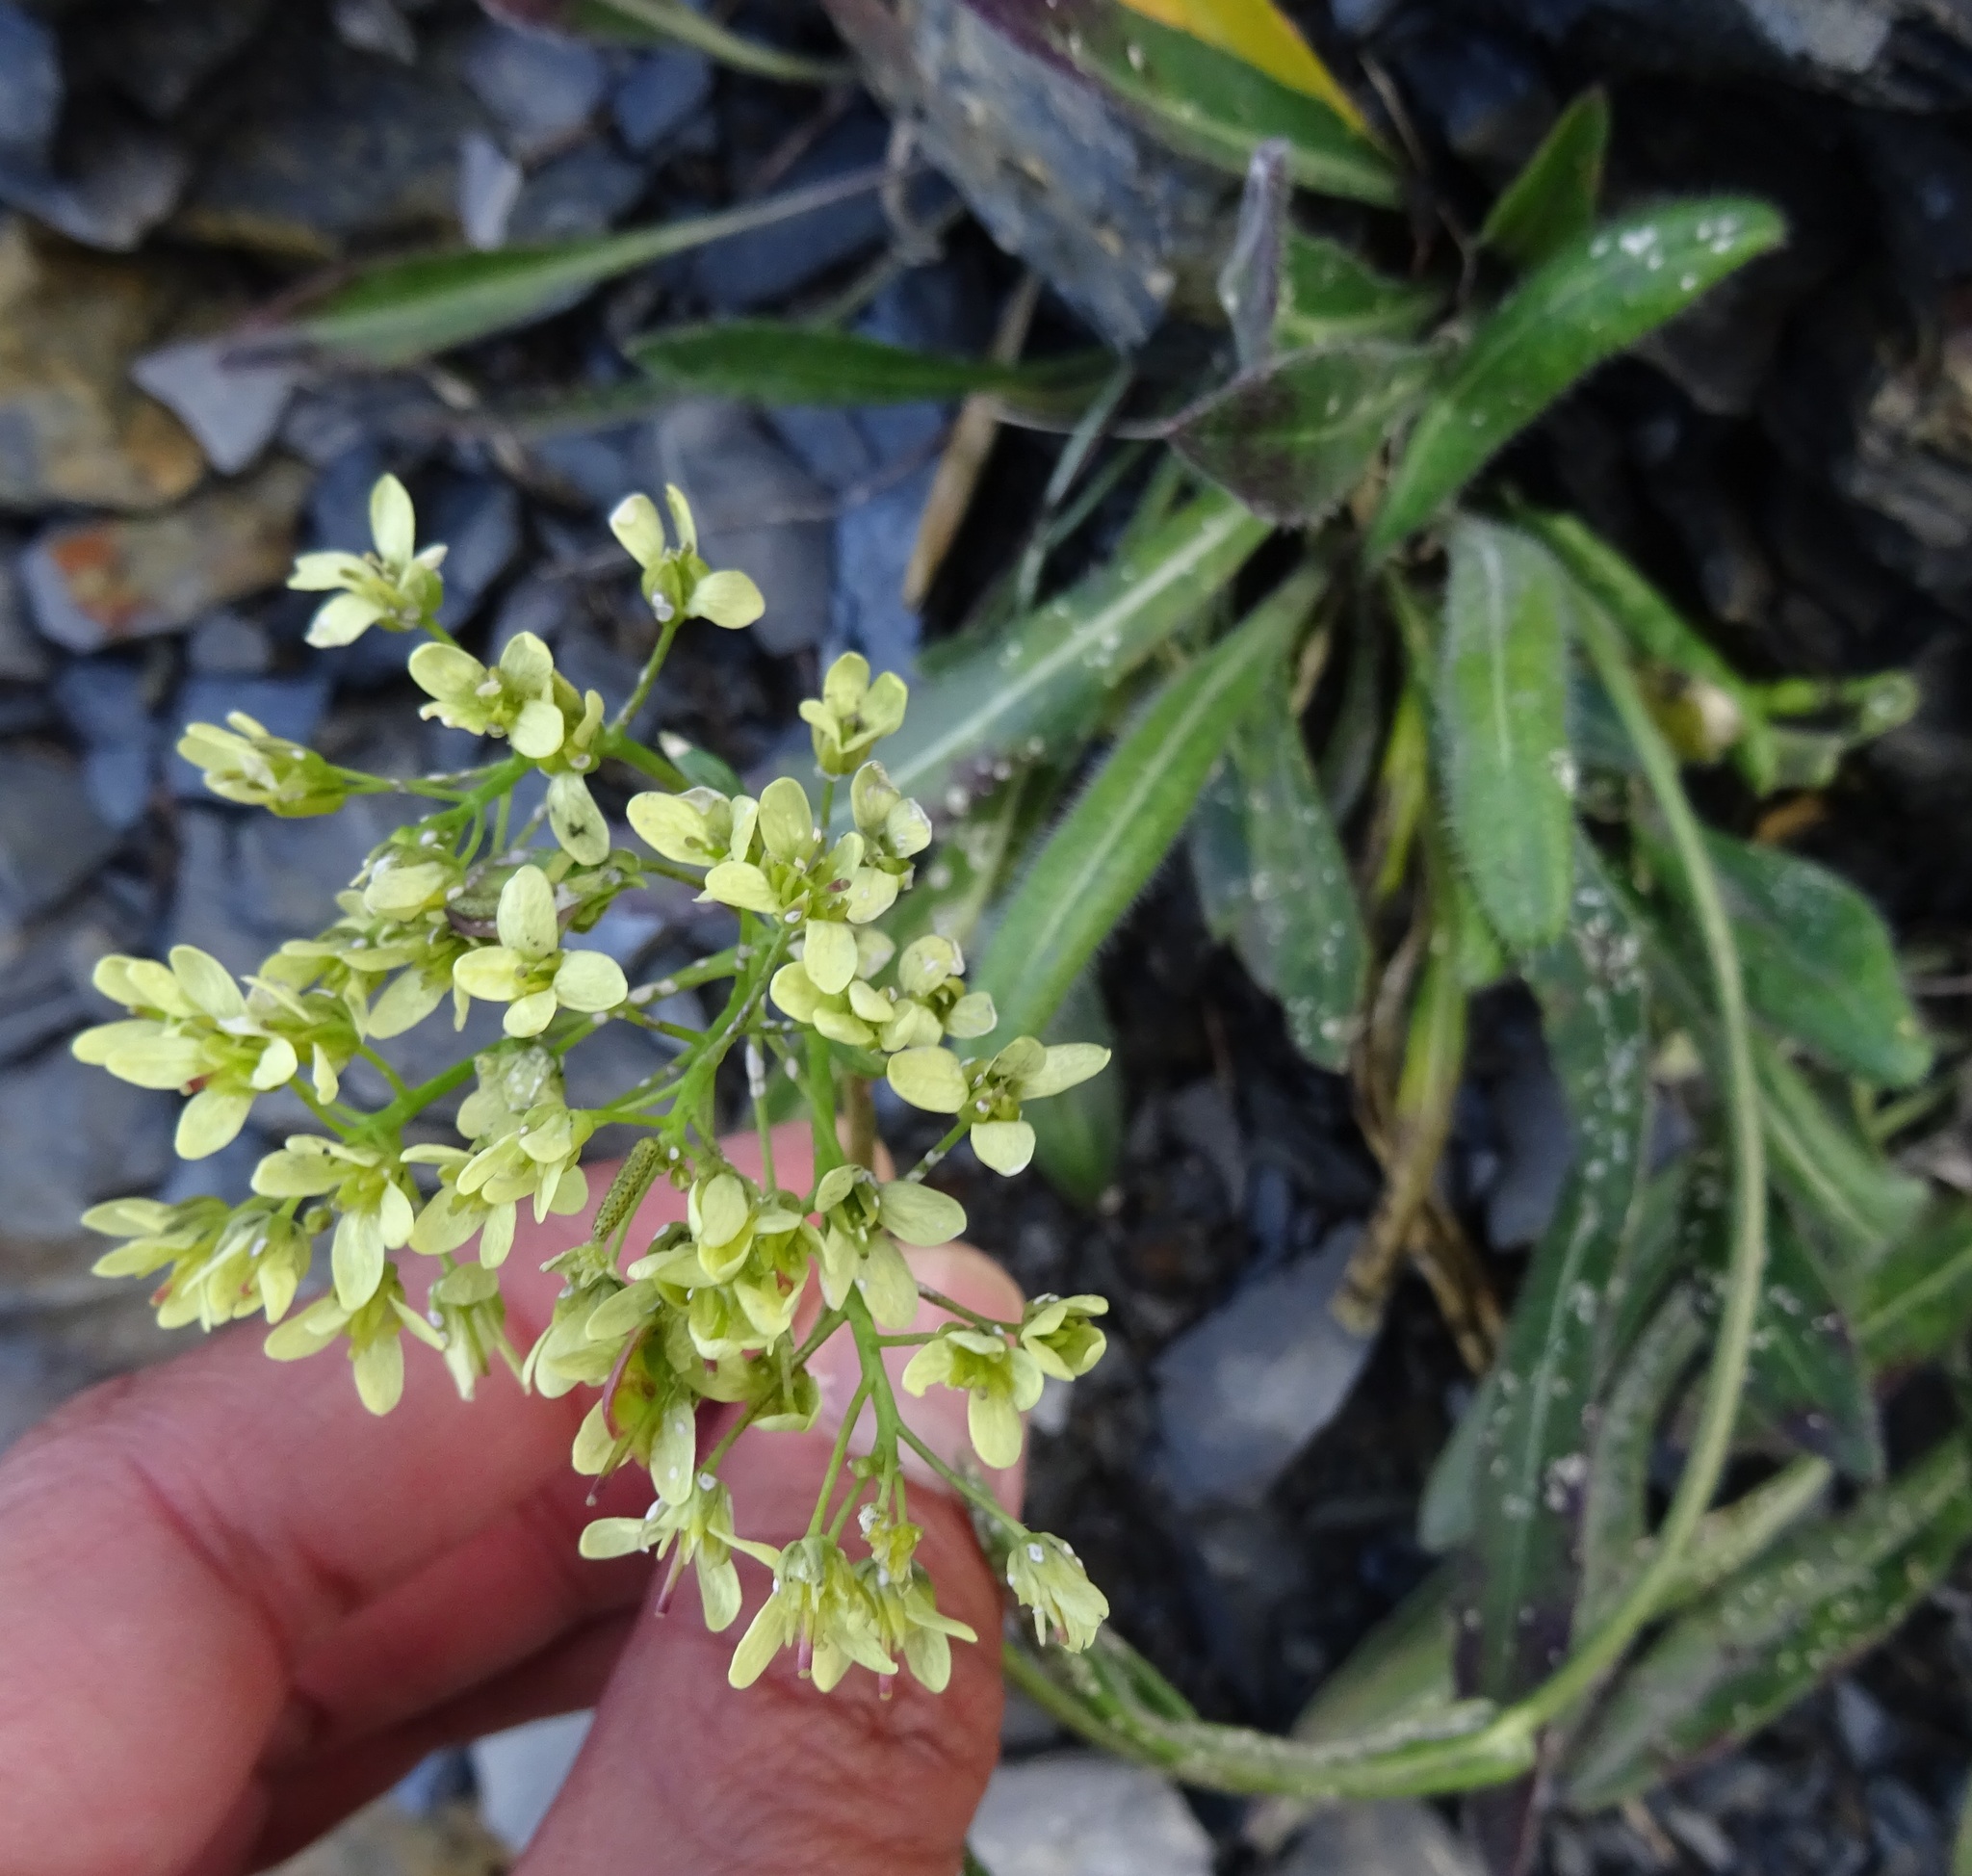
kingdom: Plantae
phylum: Tracheophyta
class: Magnoliopsida
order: Brassicales
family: Brassicaceae
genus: Biscutella
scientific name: Biscutella laevigata
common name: Buckler mustard
